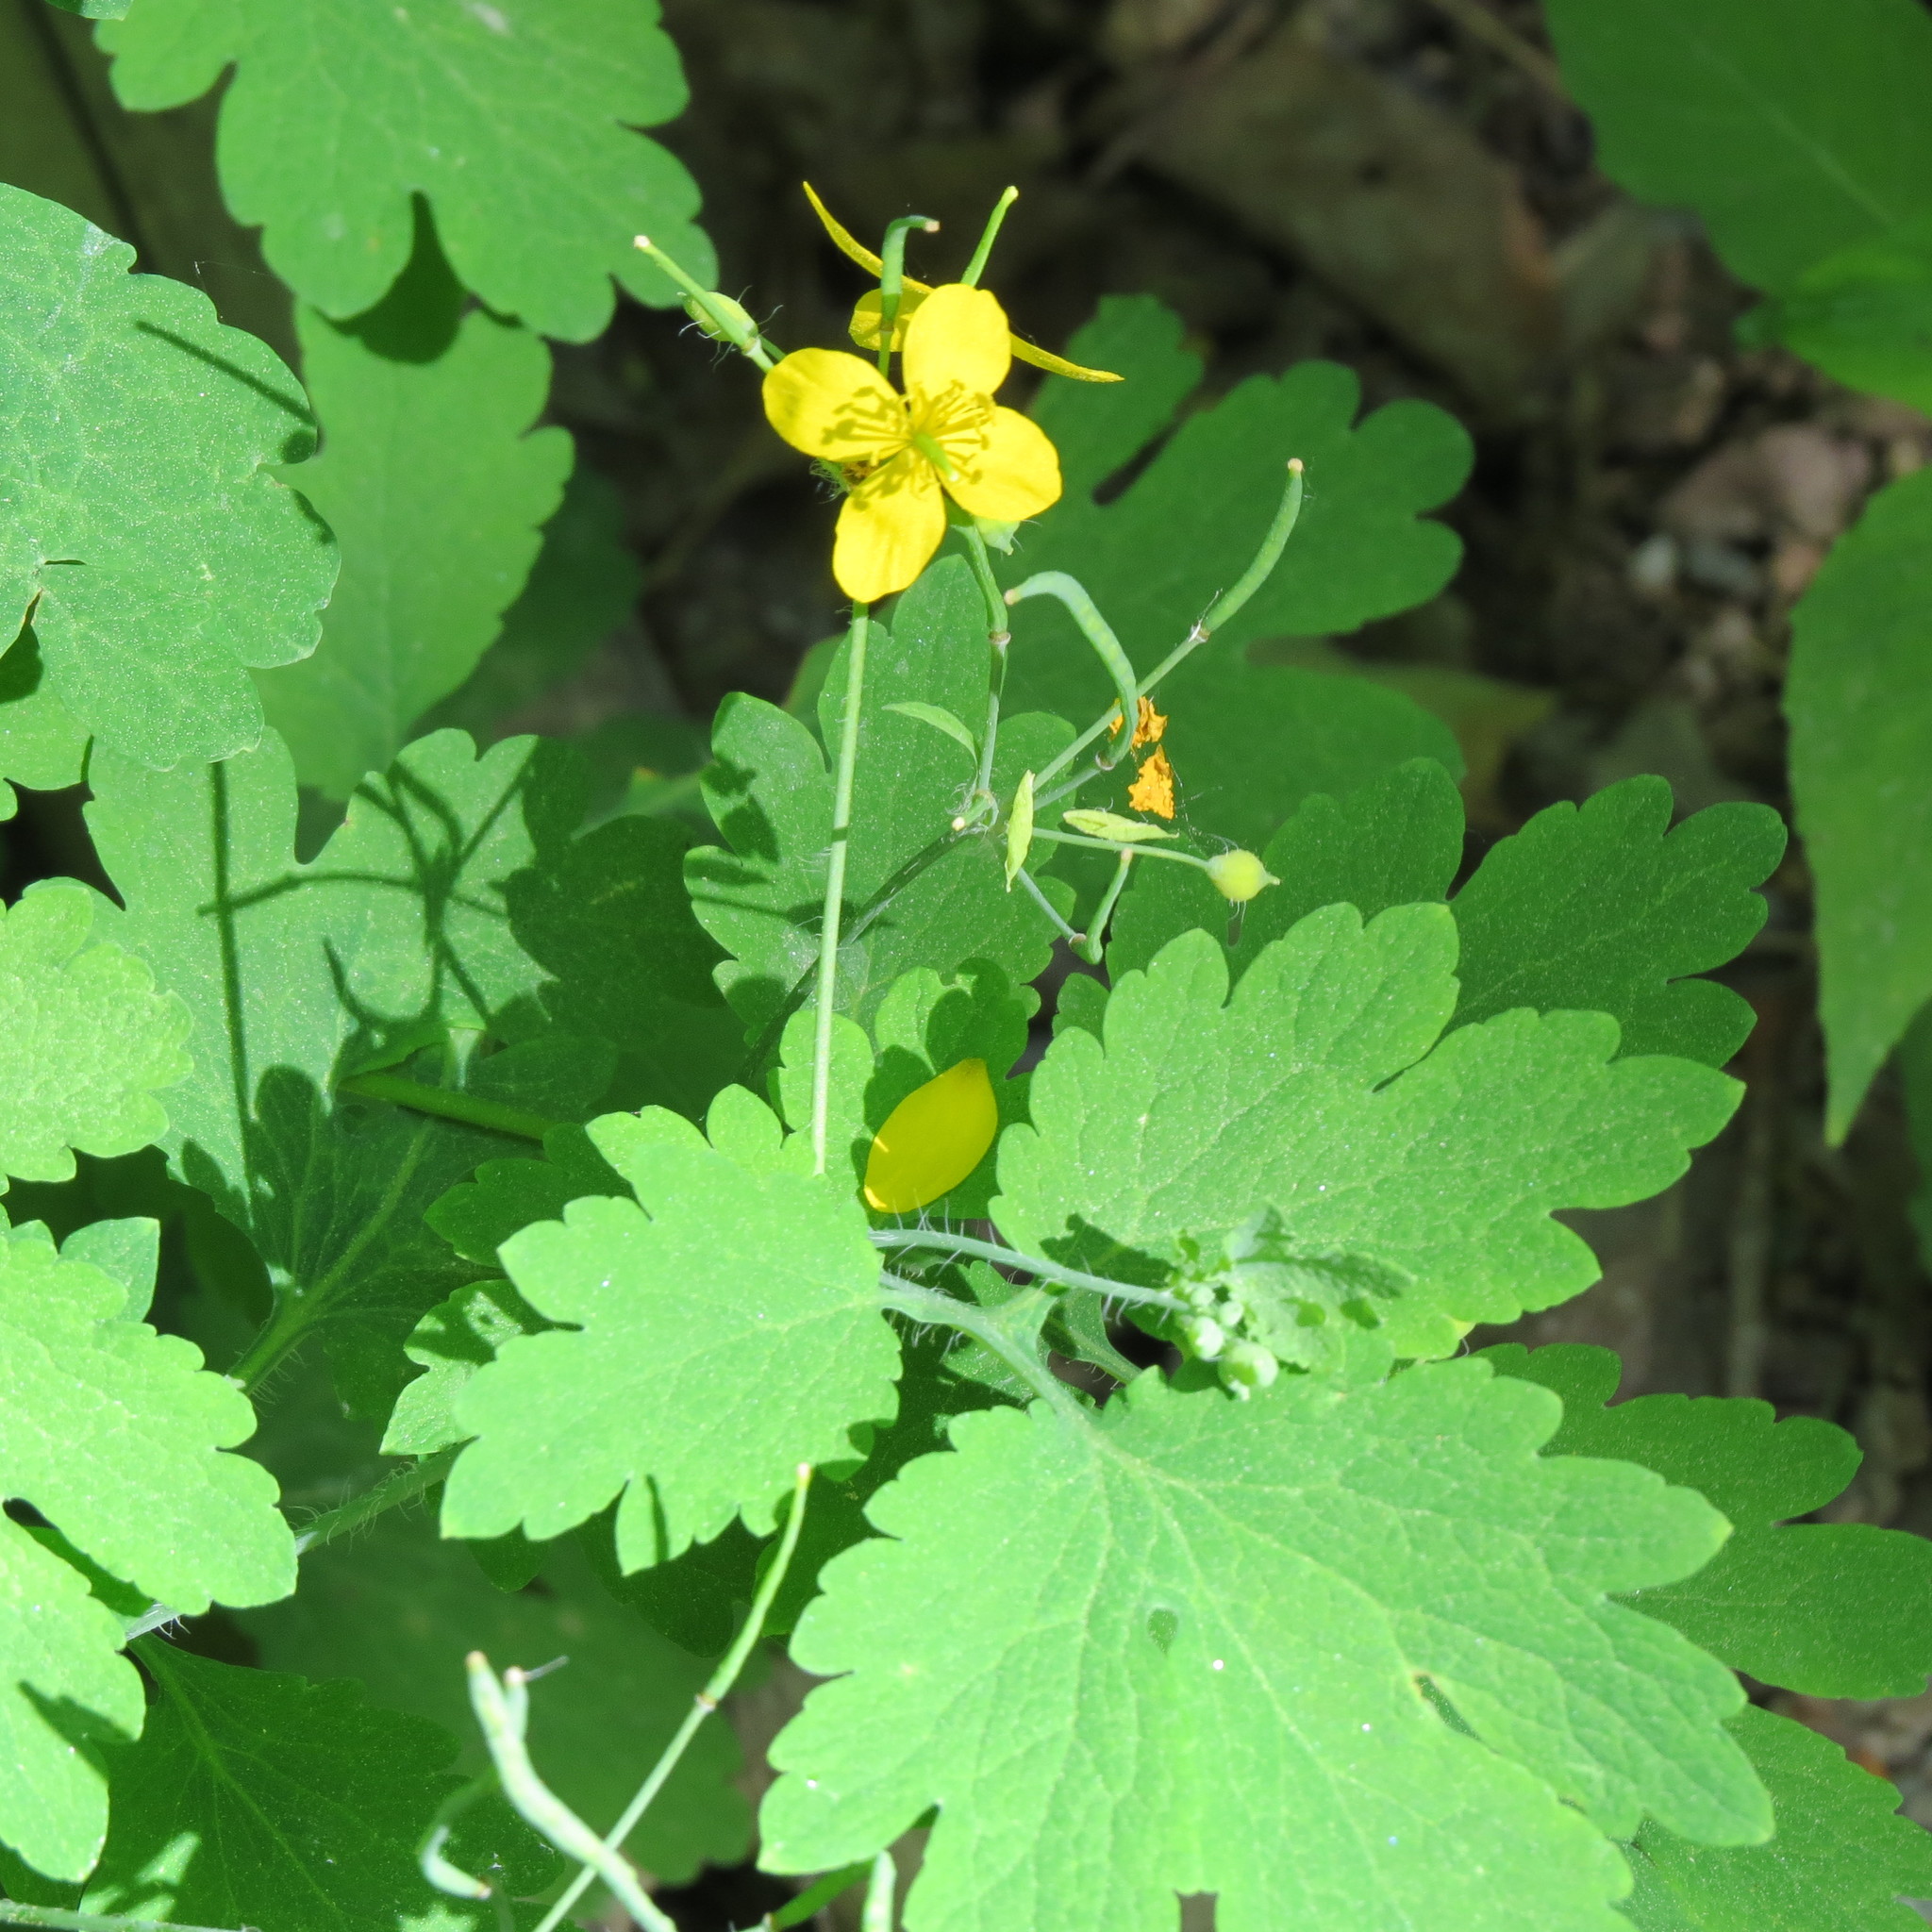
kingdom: Plantae
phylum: Tracheophyta
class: Magnoliopsida
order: Ranunculales
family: Papaveraceae
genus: Chelidonium
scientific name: Chelidonium majus
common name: Greater celandine
